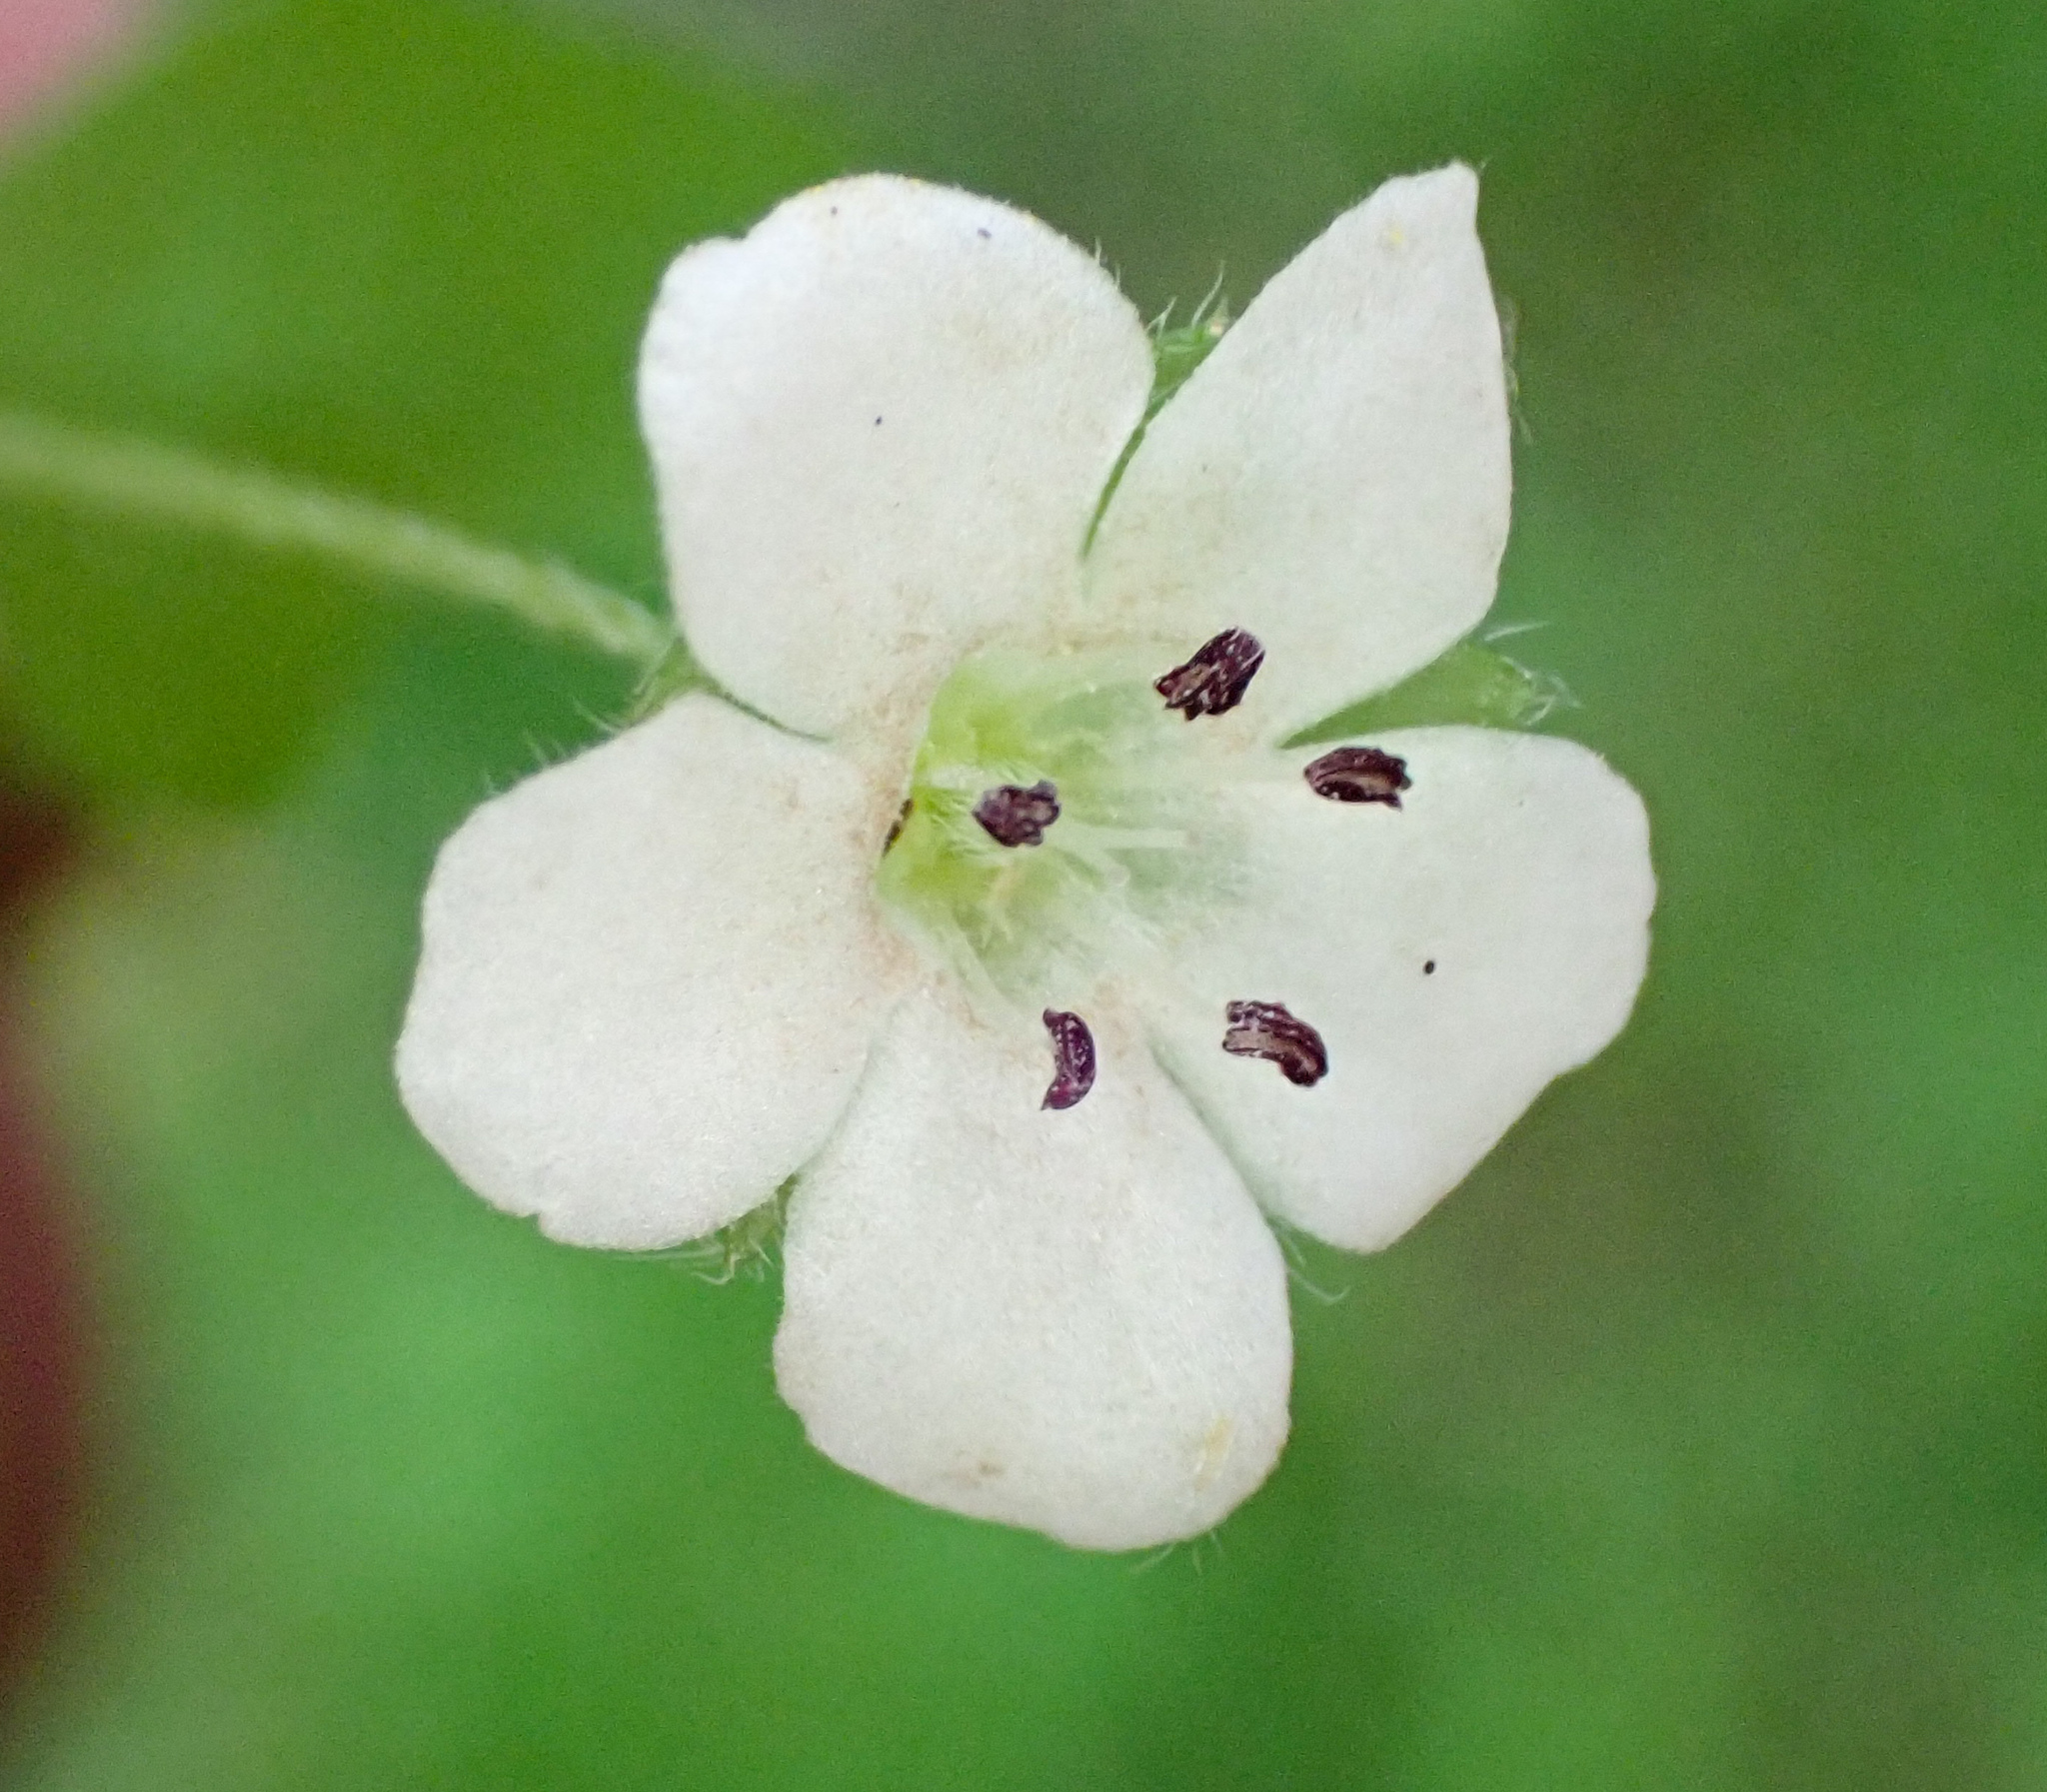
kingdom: Plantae
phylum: Tracheophyta
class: Magnoliopsida
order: Boraginales
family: Hydrophyllaceae
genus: Nemophila
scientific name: Nemophila heterophylla
